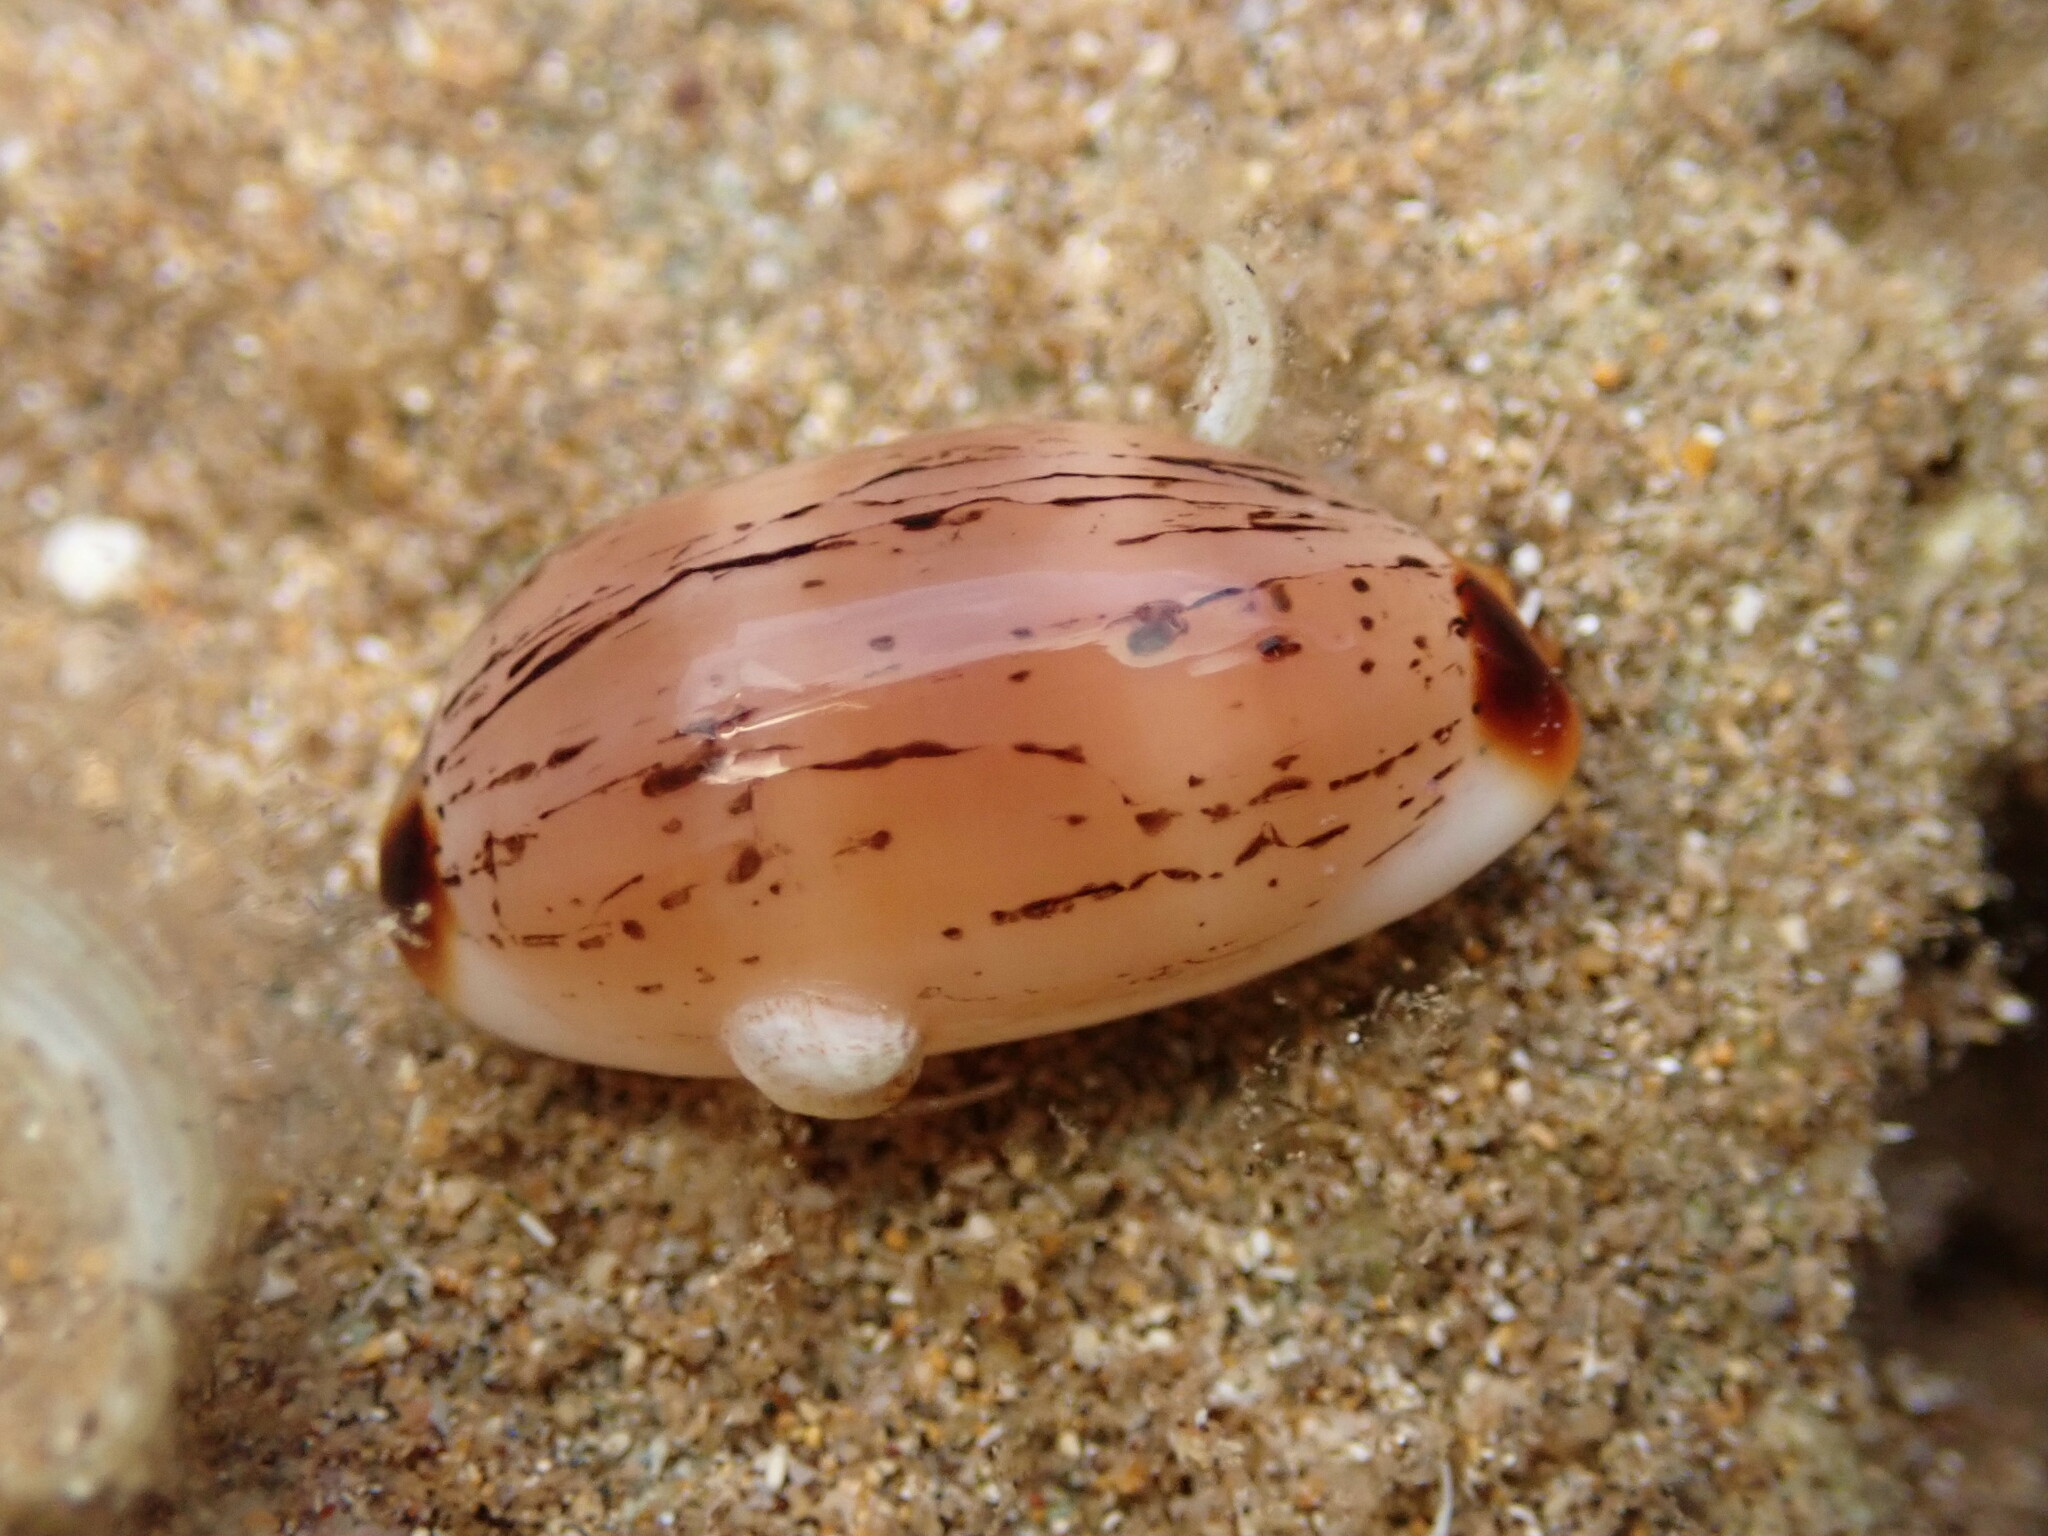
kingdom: Animalia
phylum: Mollusca
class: Gastropoda
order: Littorinimorpha
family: Cypraeidae
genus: Luria
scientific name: Luria isabella
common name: Isabell cowry
